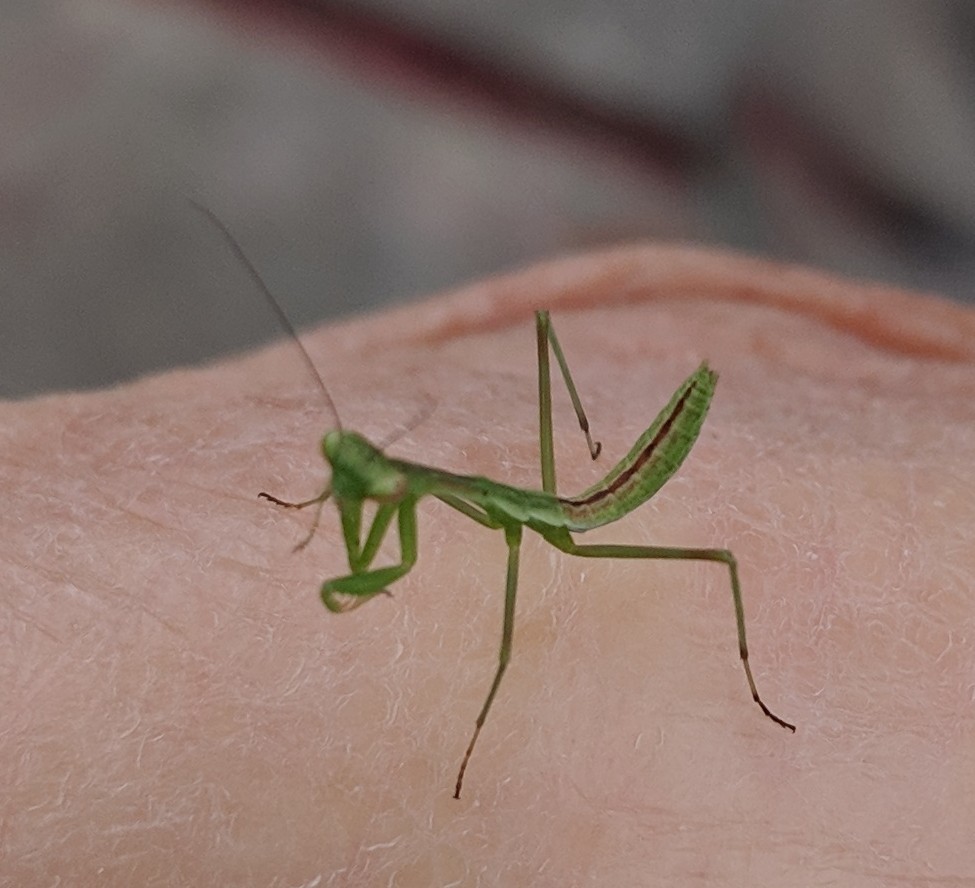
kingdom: Animalia
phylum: Arthropoda
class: Insecta
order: Mantodea
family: Miomantidae
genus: Miomantis
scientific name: Miomantis caffra
